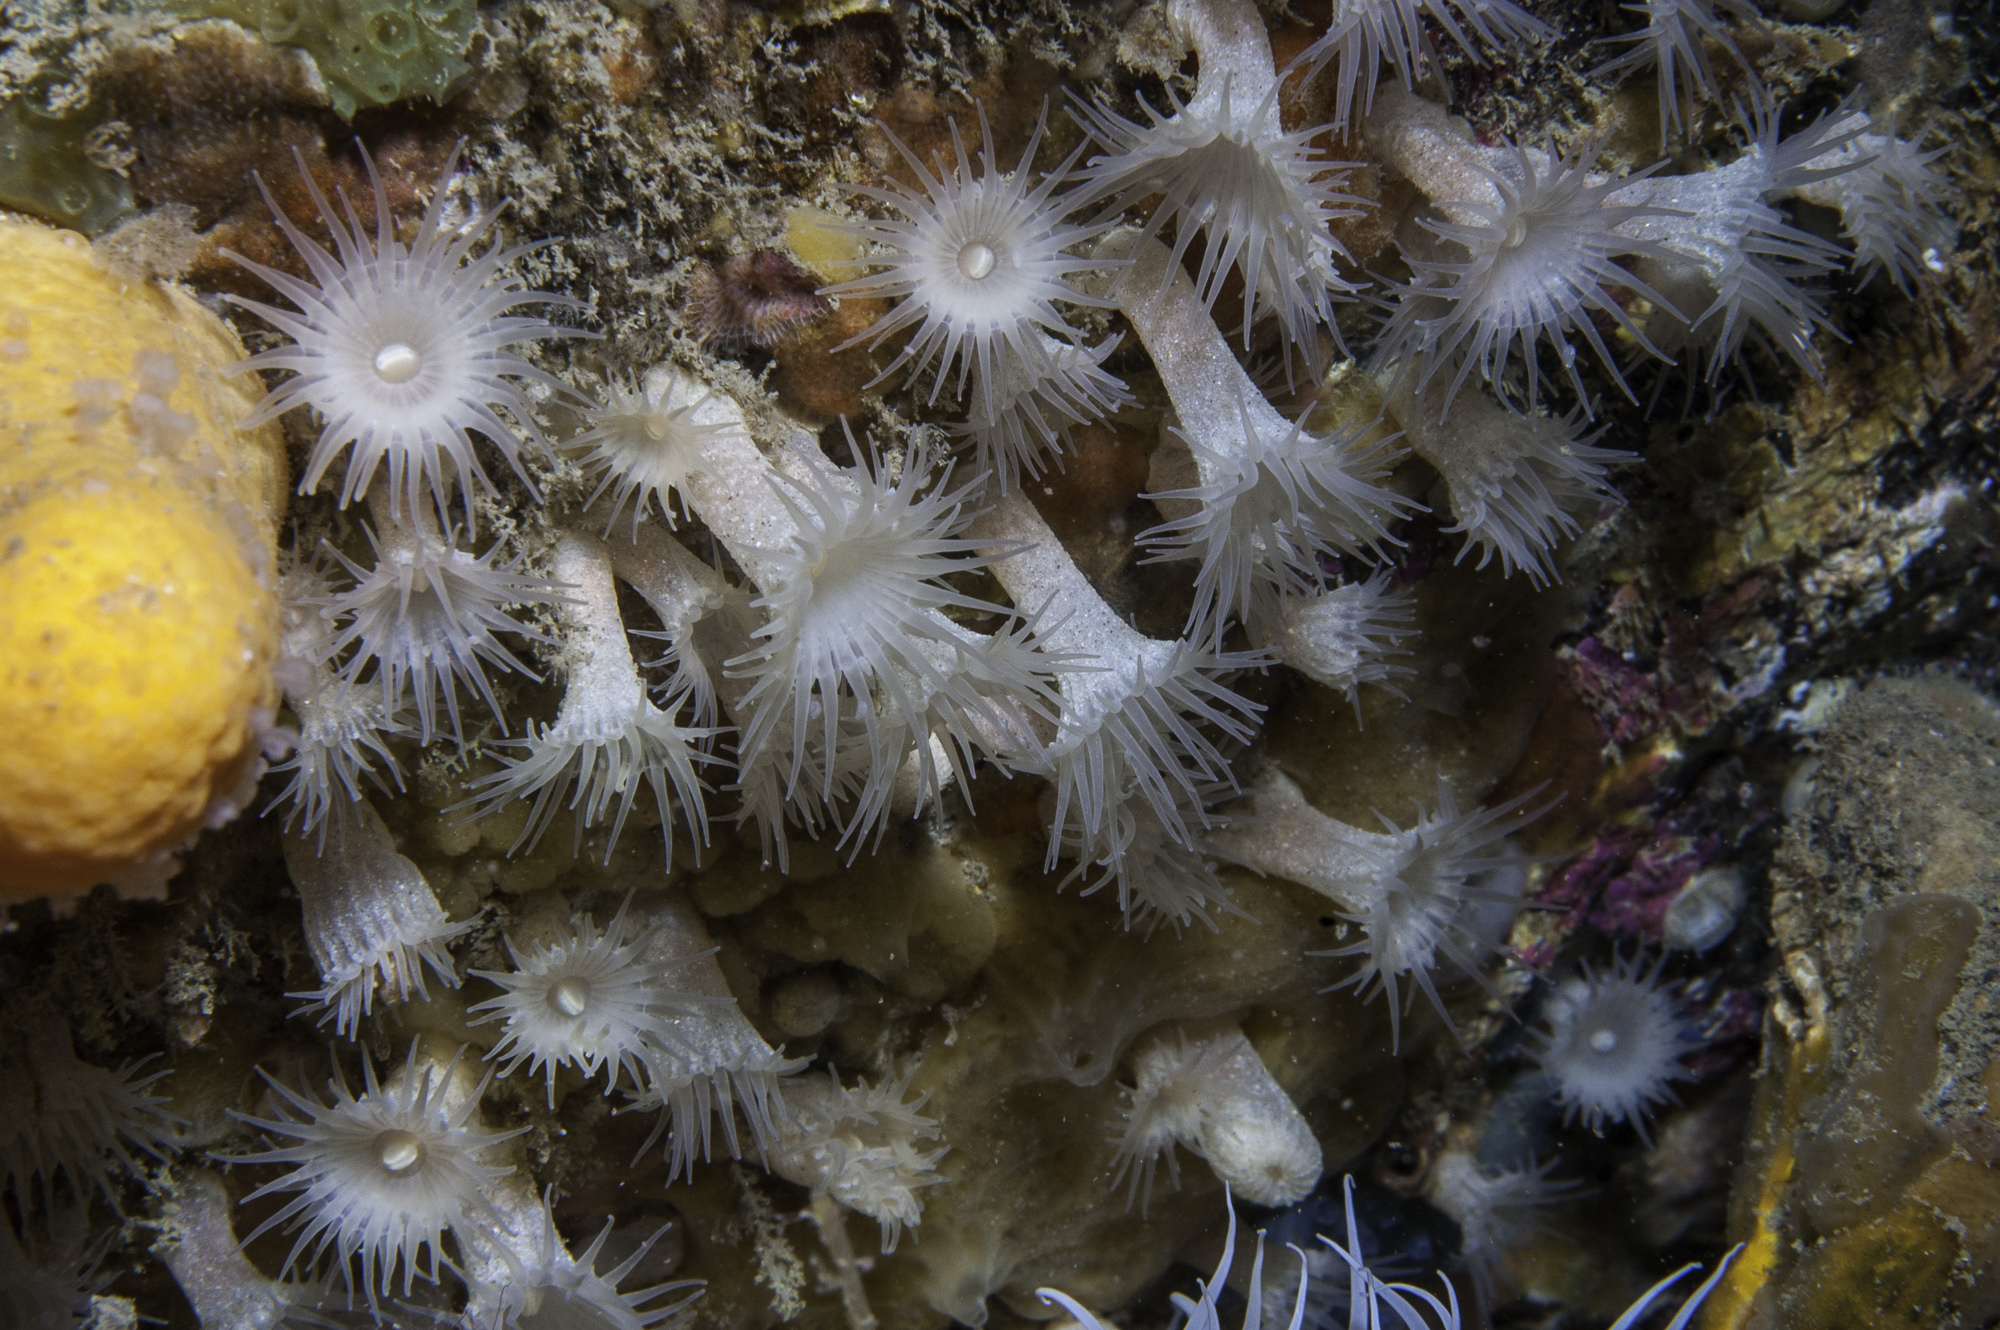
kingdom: Animalia
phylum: Cnidaria
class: Anthozoa
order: Zoantharia
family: Parazoanthidae
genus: Parazoanthus
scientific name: Parazoanthus anguicomus
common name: White cluster anemone
